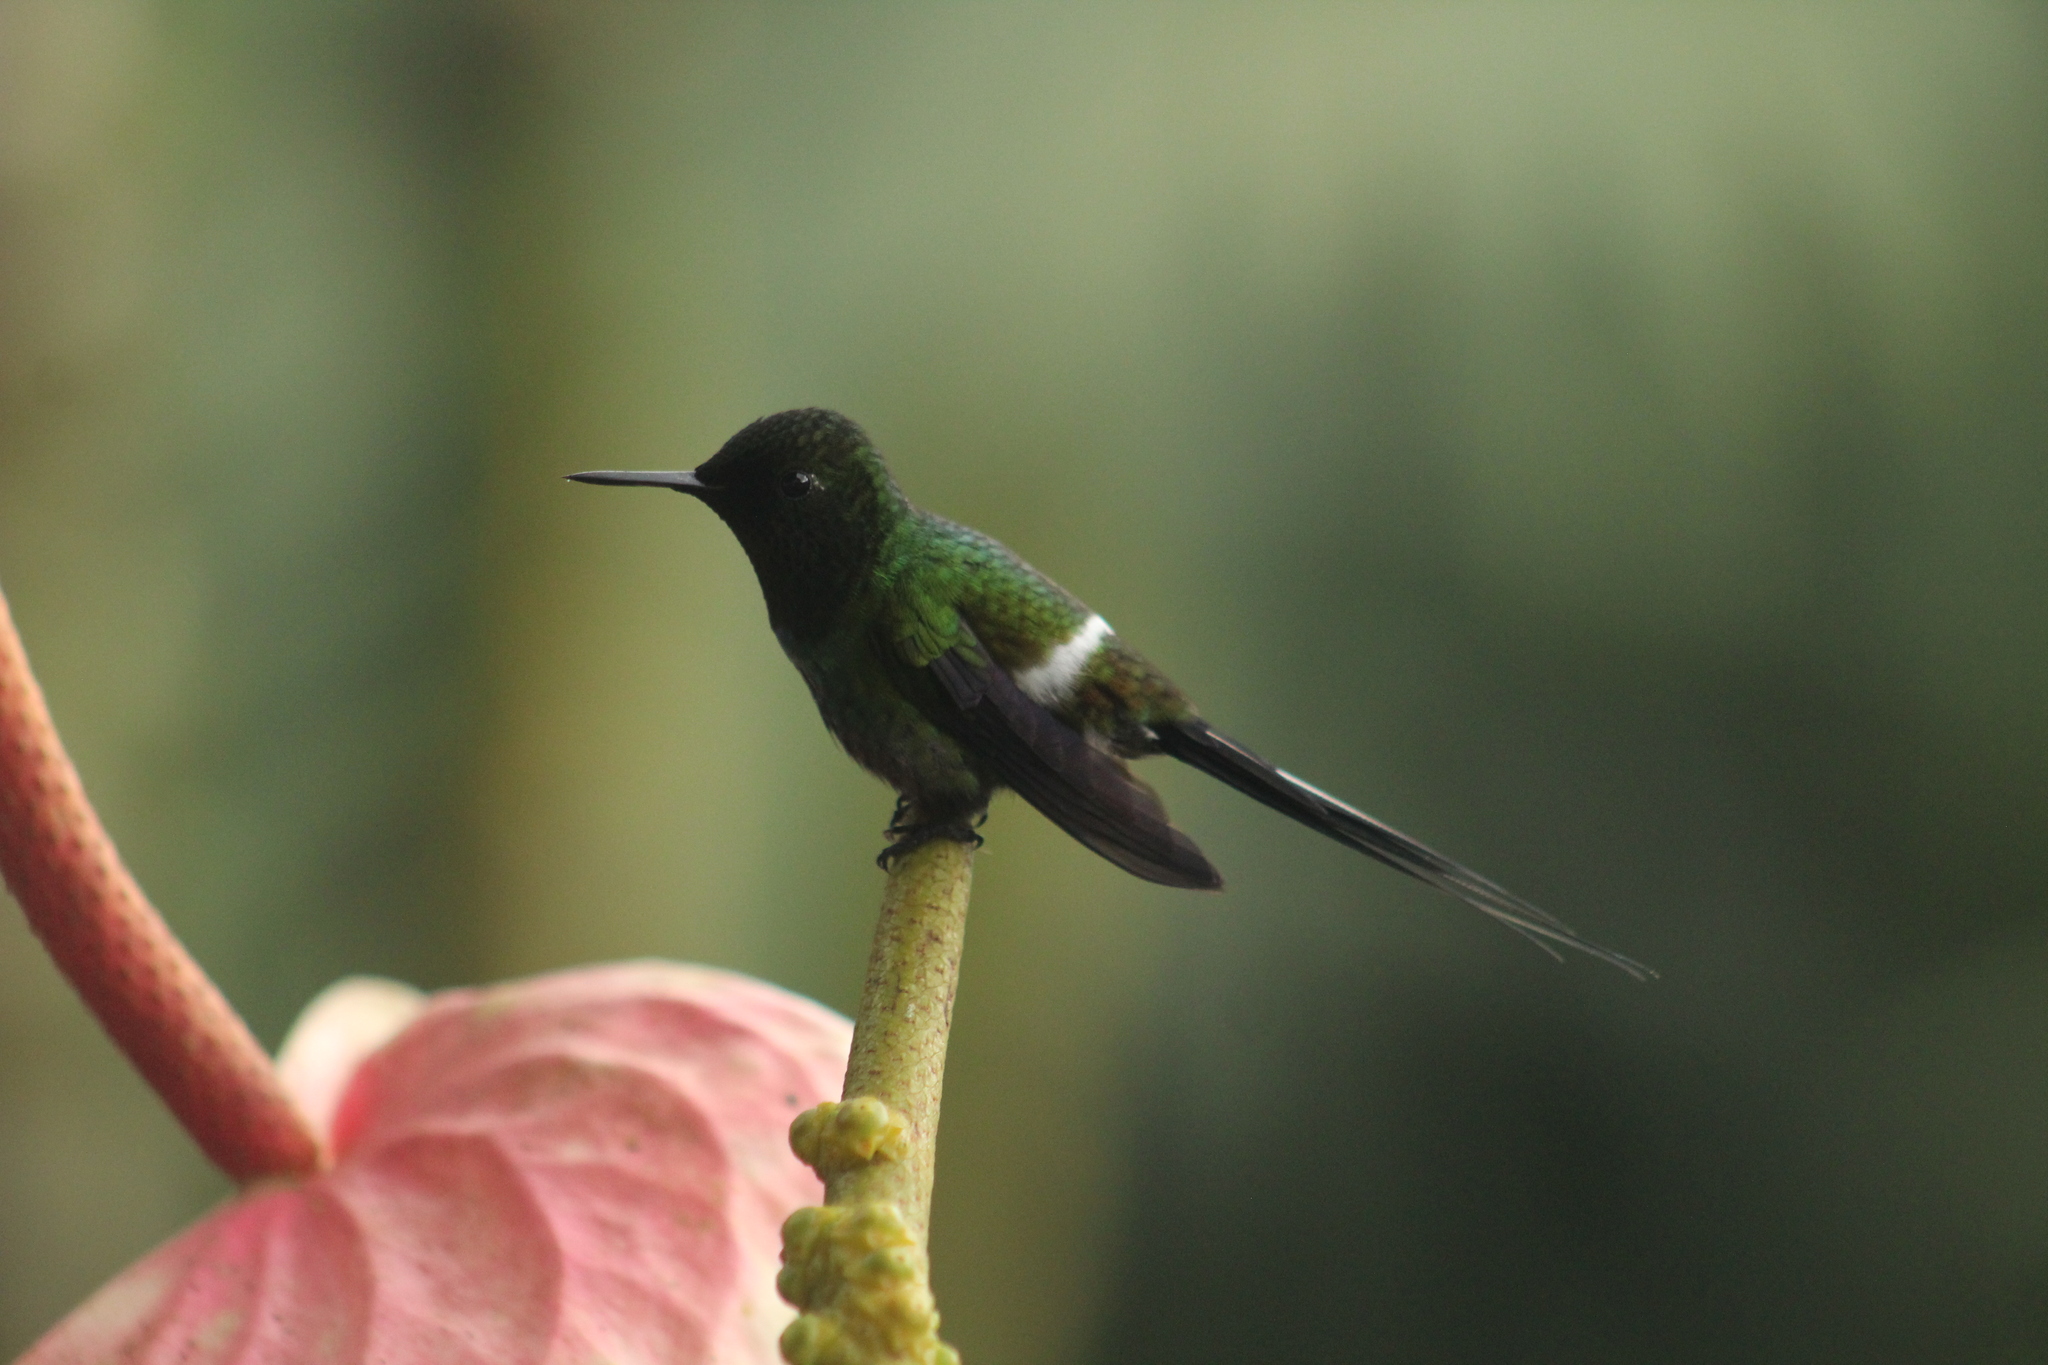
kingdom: Animalia
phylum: Chordata
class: Aves
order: Apodiformes
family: Trochilidae
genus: Discosura
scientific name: Discosura conversii
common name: Green thorntail
